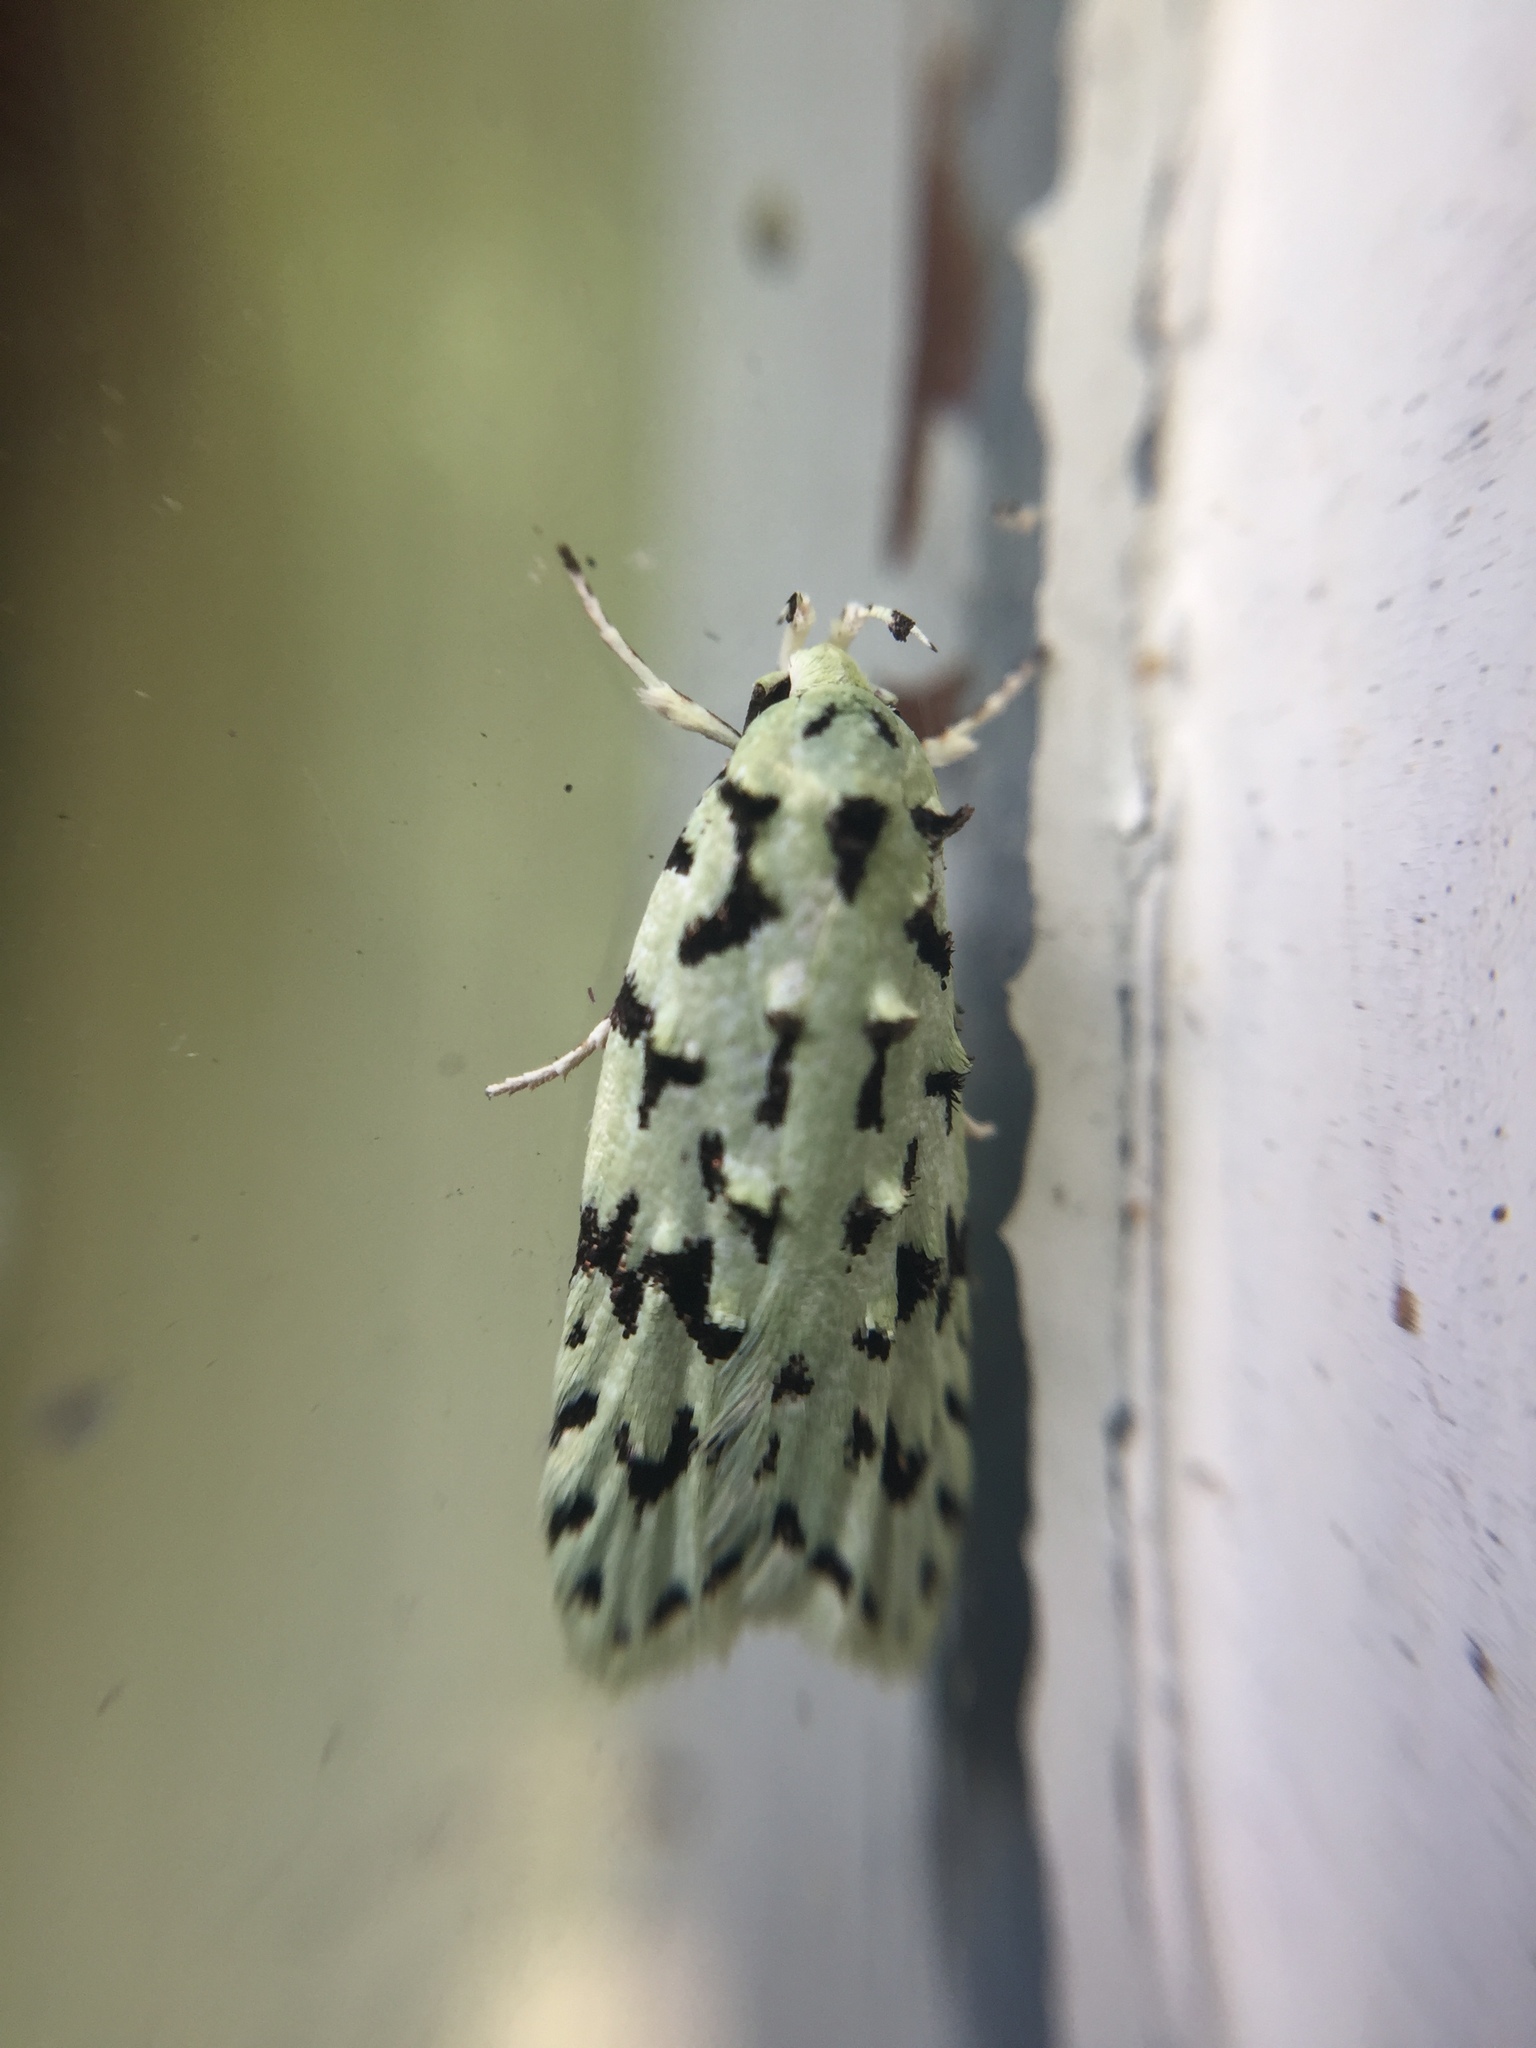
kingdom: Animalia
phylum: Arthropoda
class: Insecta
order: Lepidoptera
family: Oecophoridae
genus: Izatha
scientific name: Izatha peroneanella
